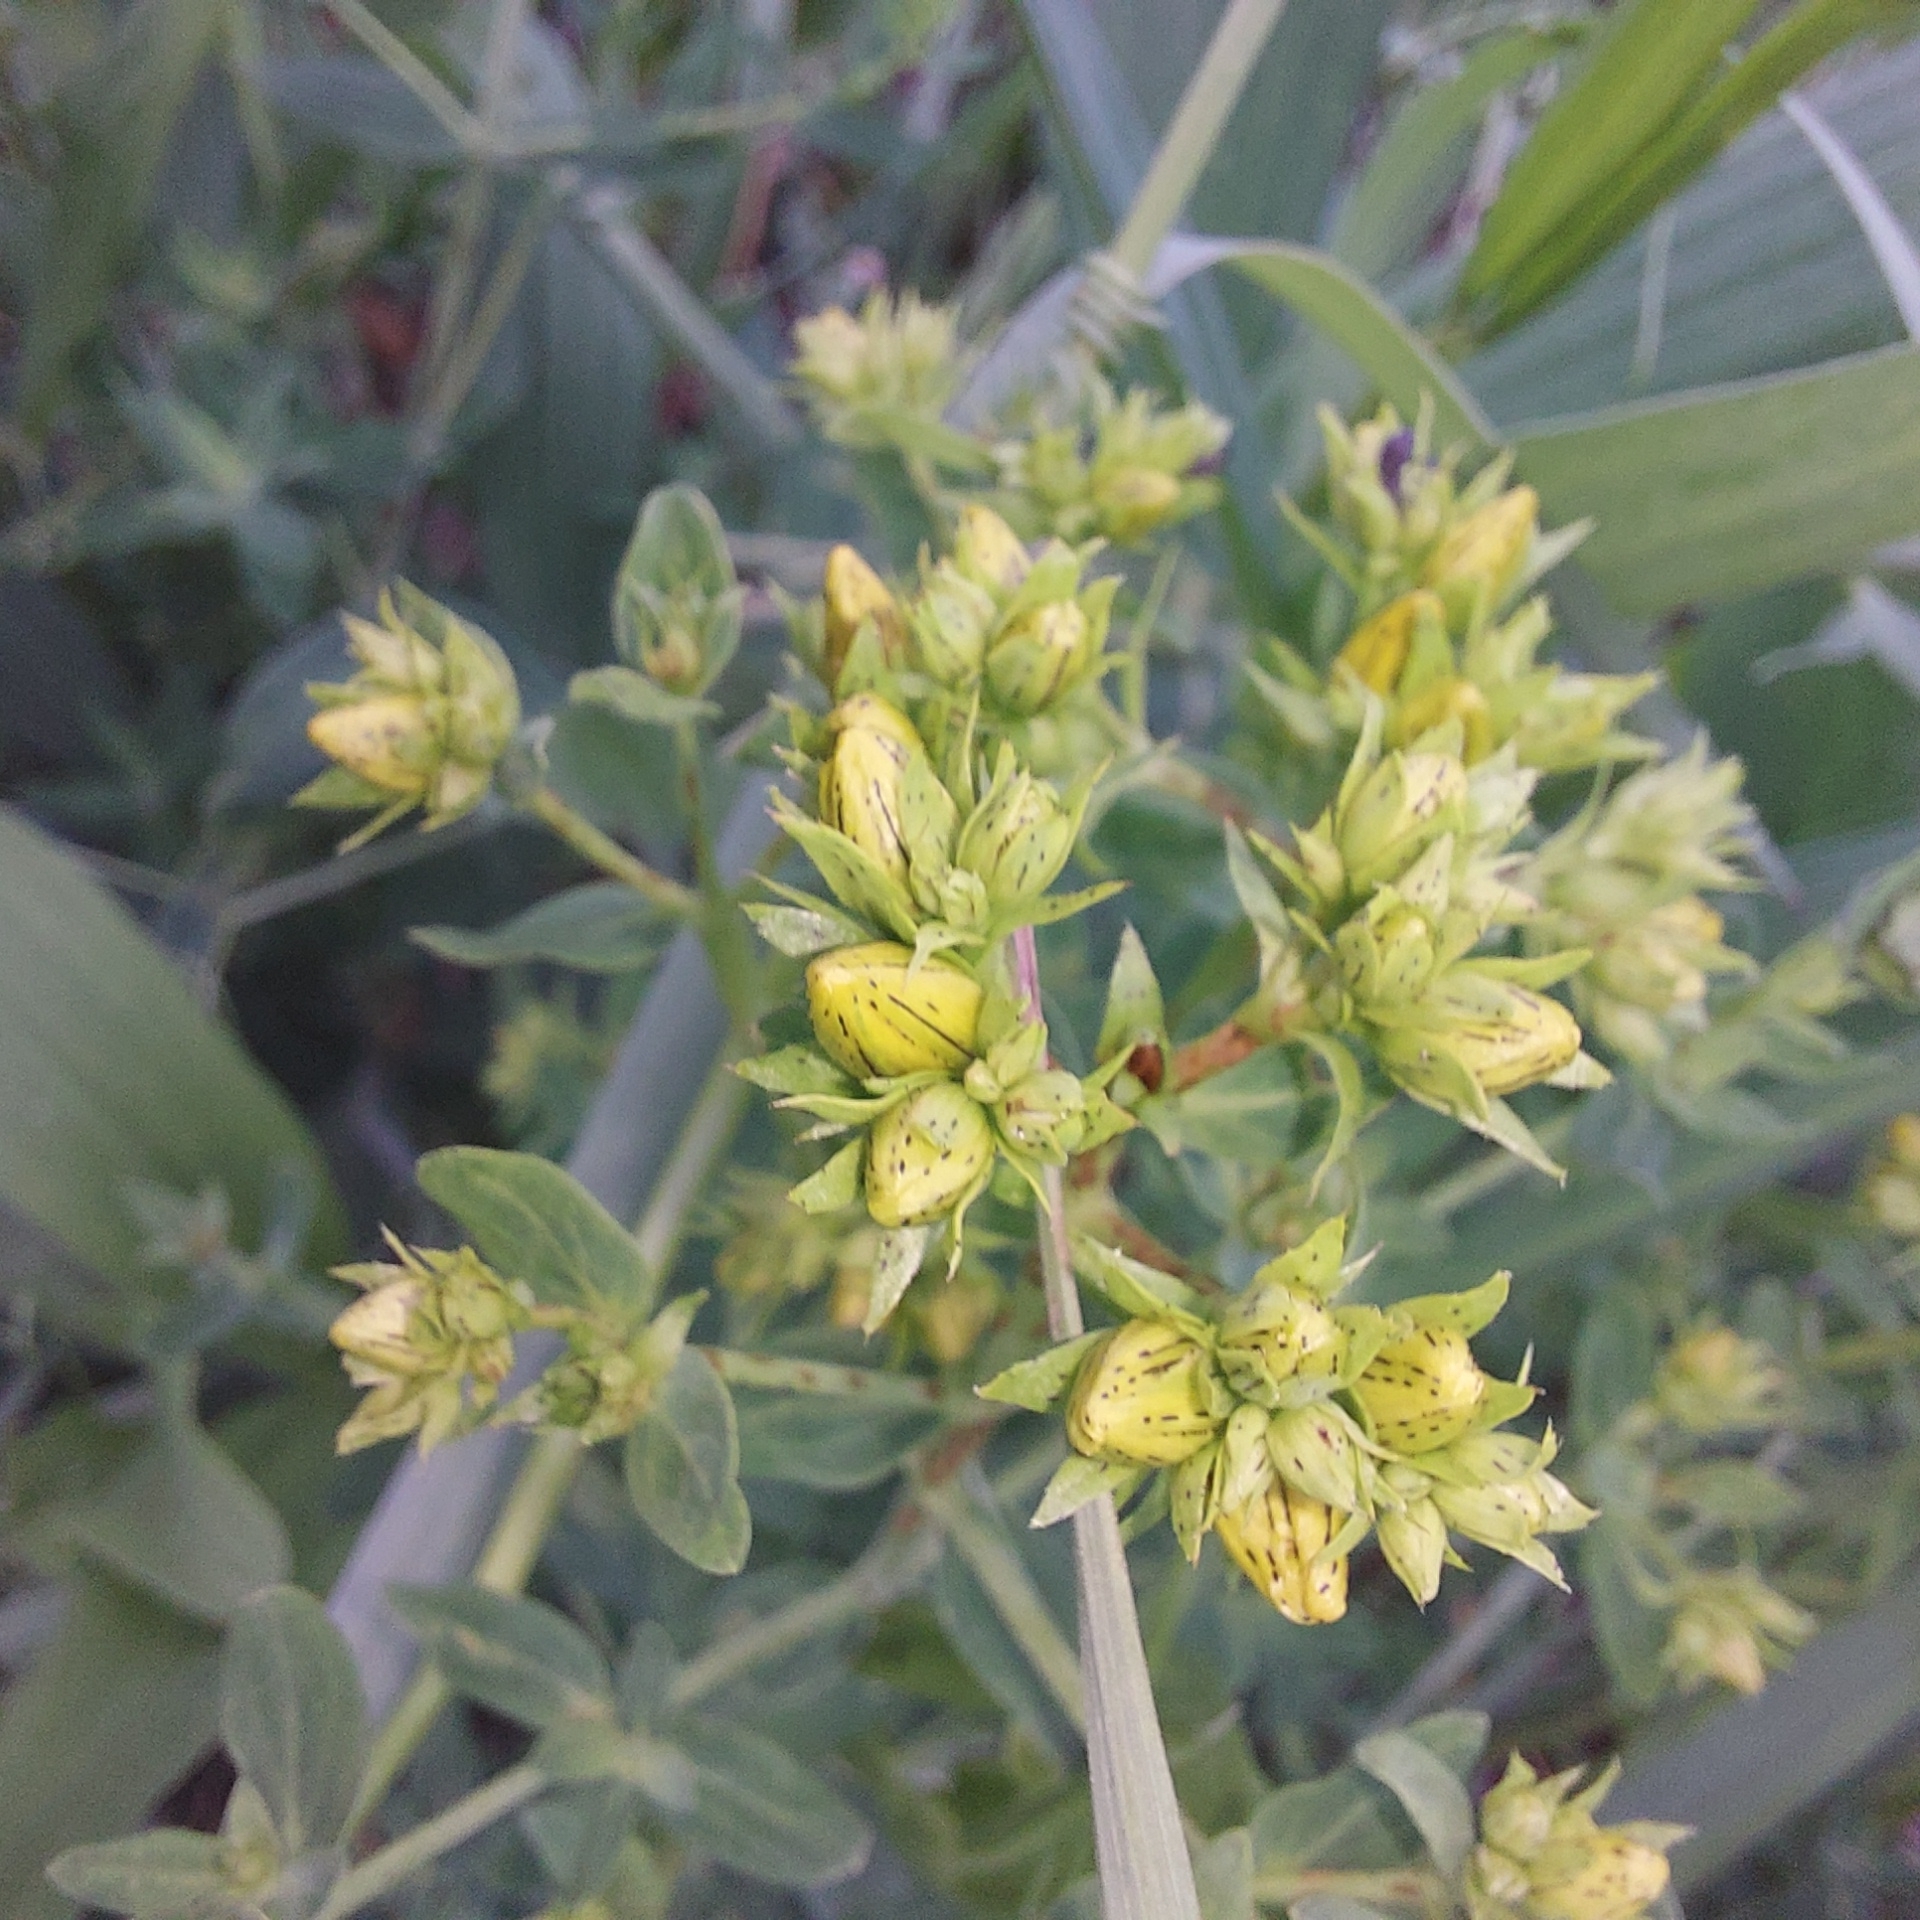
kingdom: Plantae
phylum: Tracheophyta
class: Magnoliopsida
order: Malpighiales
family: Hypericaceae
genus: Hypericum
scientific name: Hypericum perforatum
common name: Common st. johnswort
